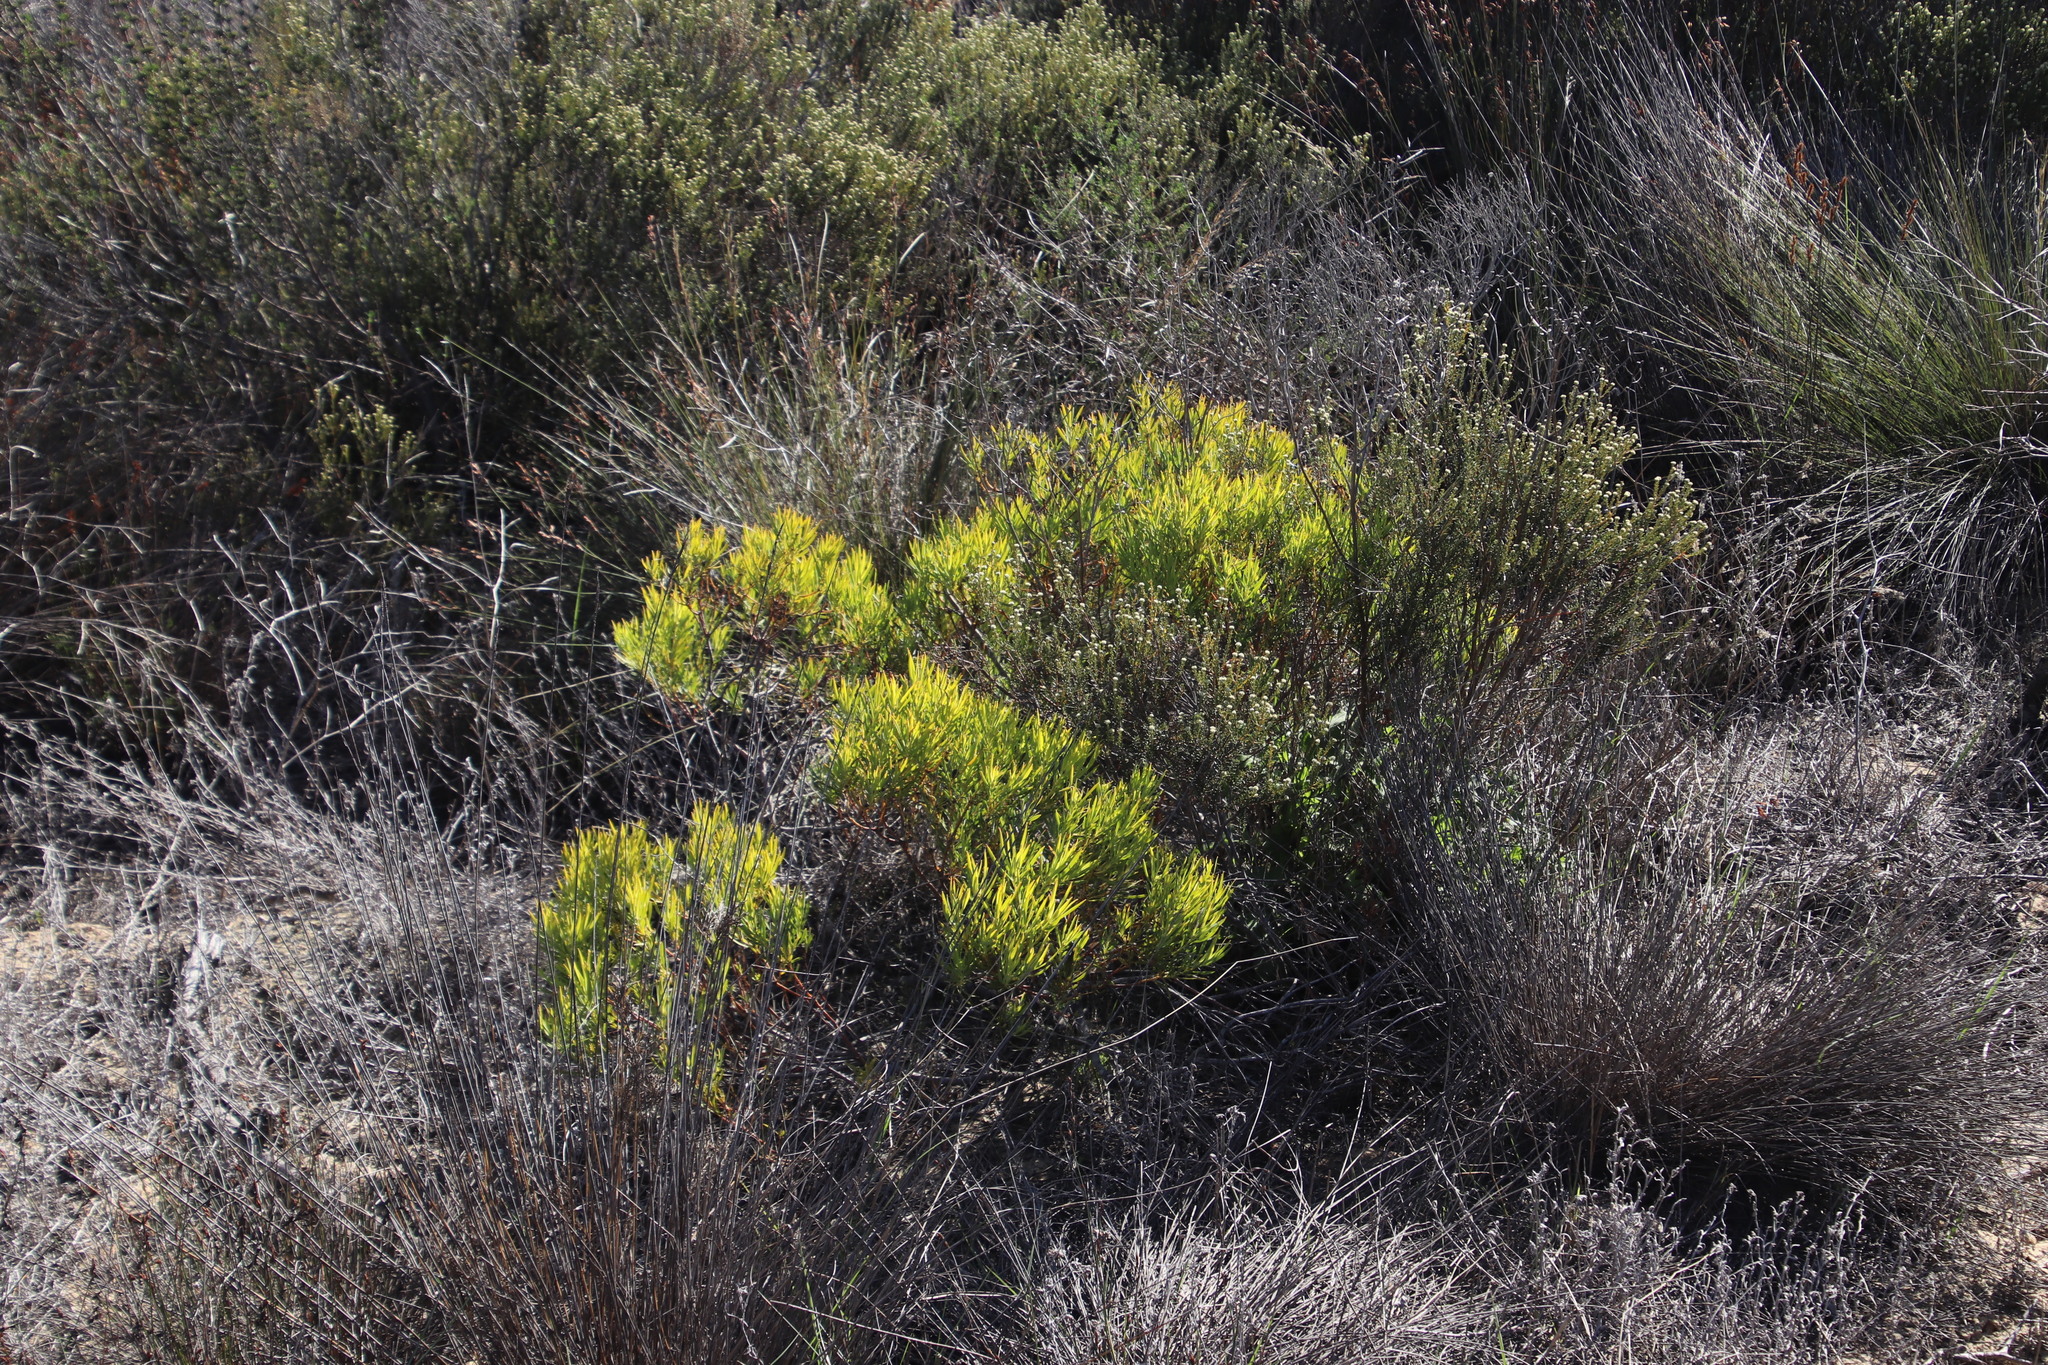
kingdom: Plantae
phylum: Tracheophyta
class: Magnoliopsida
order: Proteales
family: Proteaceae
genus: Leucadendron
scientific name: Leucadendron salignum
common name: Common sunshine conebush
